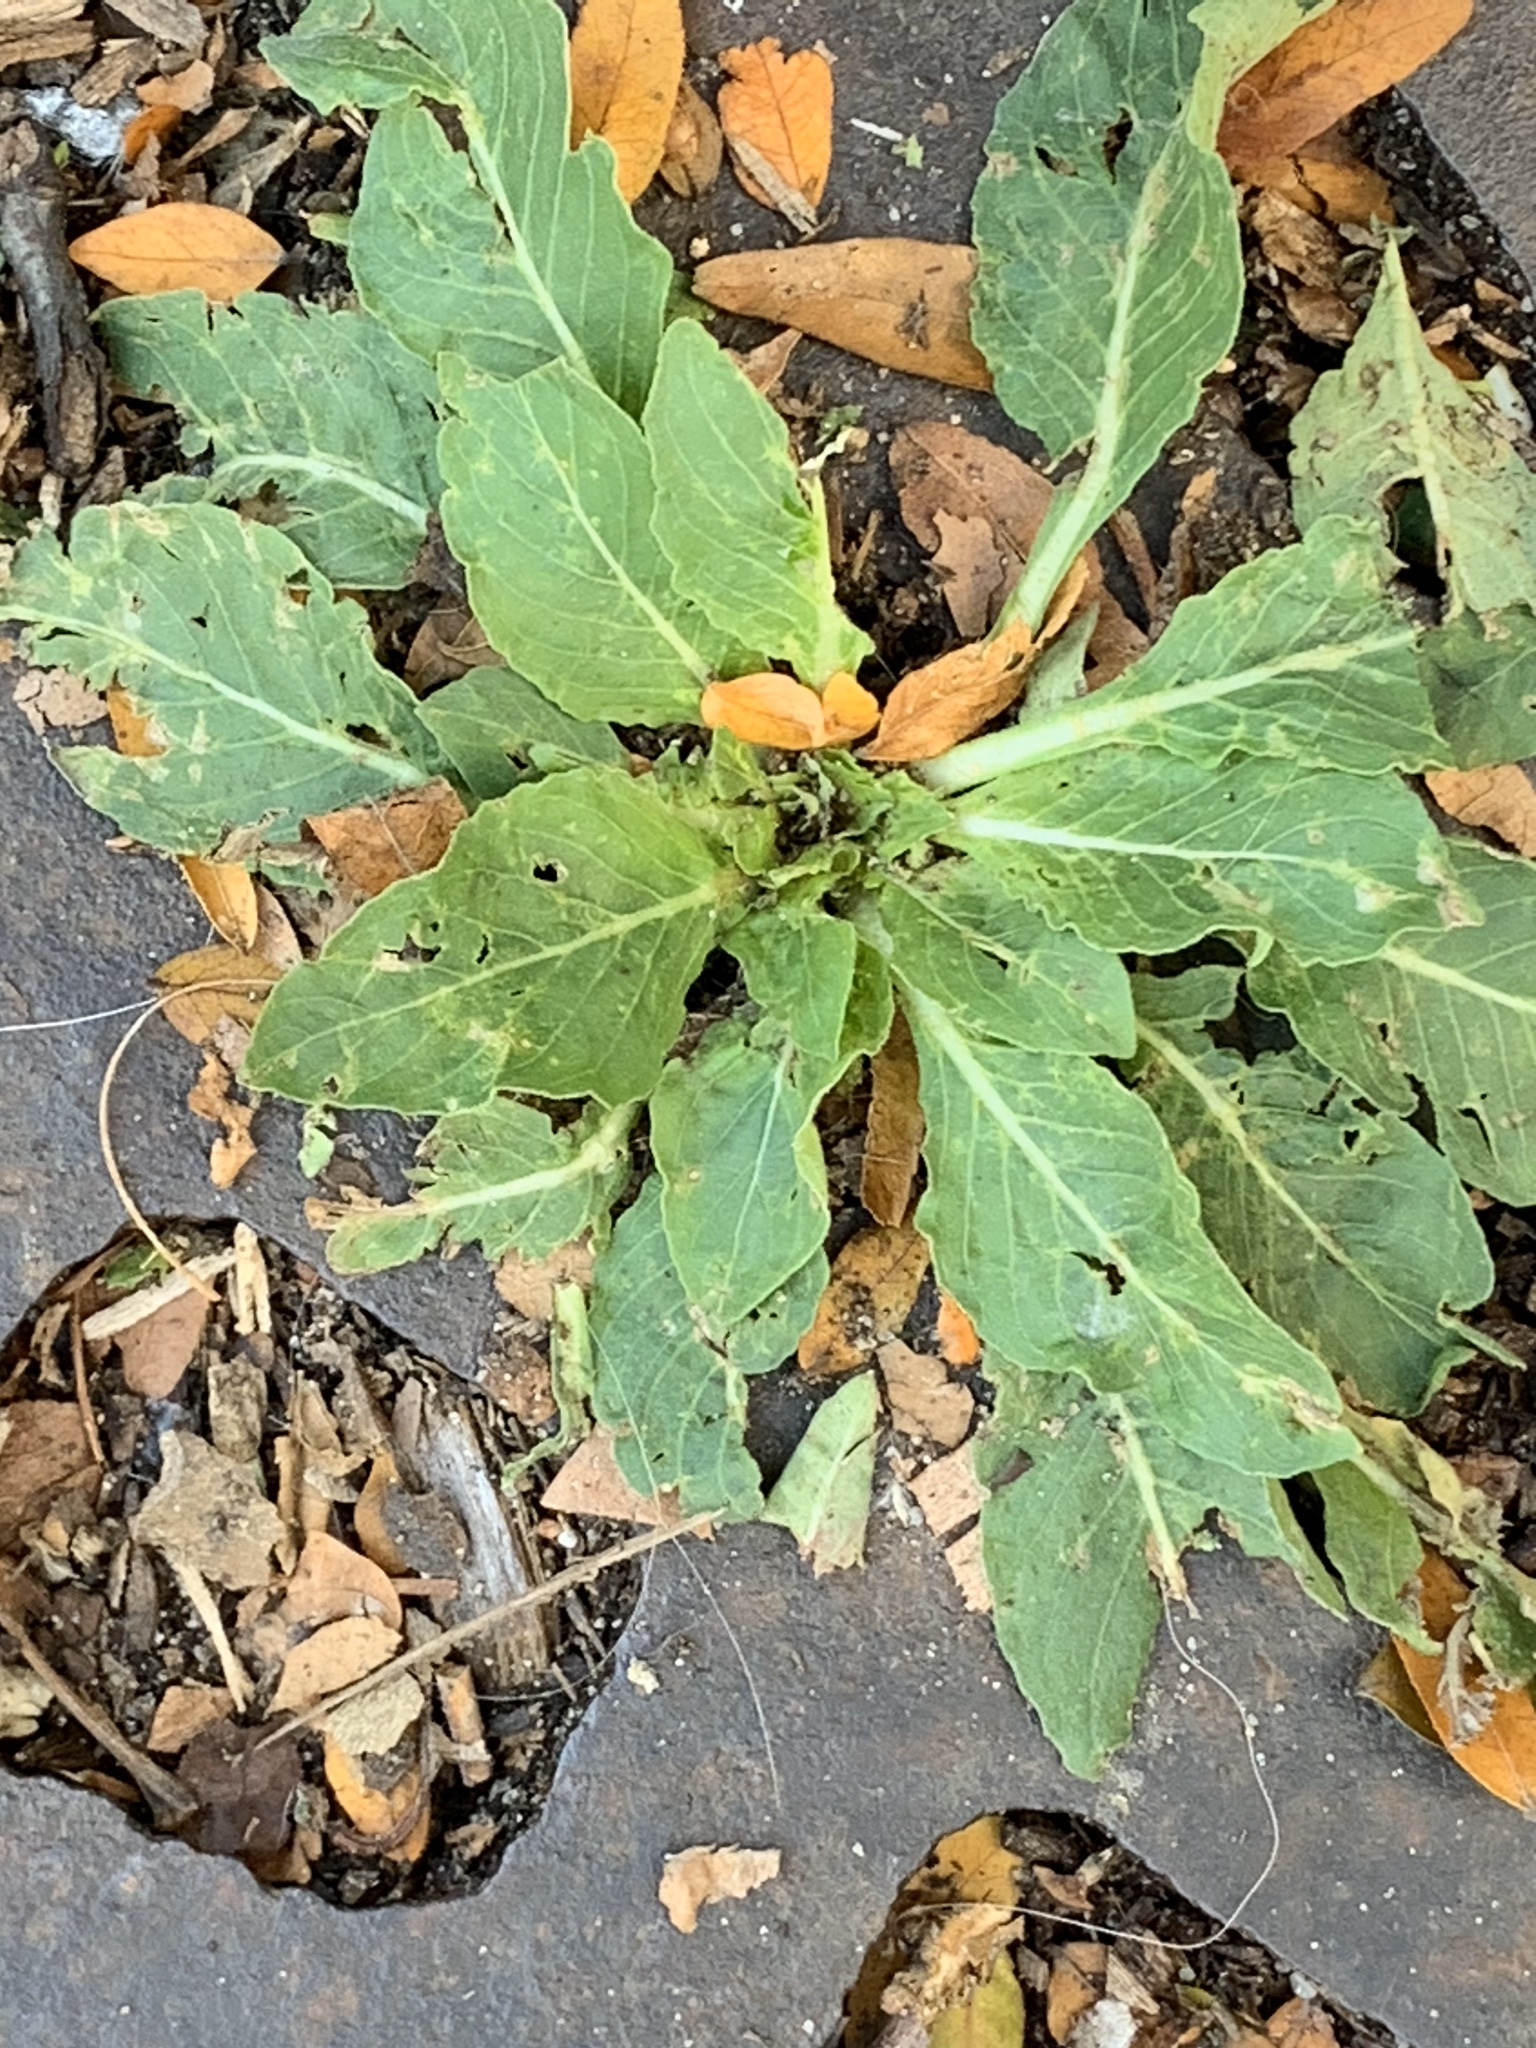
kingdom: Plantae
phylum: Tracheophyta
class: Magnoliopsida
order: Myrtales
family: Onagraceae
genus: Oenothera
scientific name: Oenothera biennis
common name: Common evening-primrose
